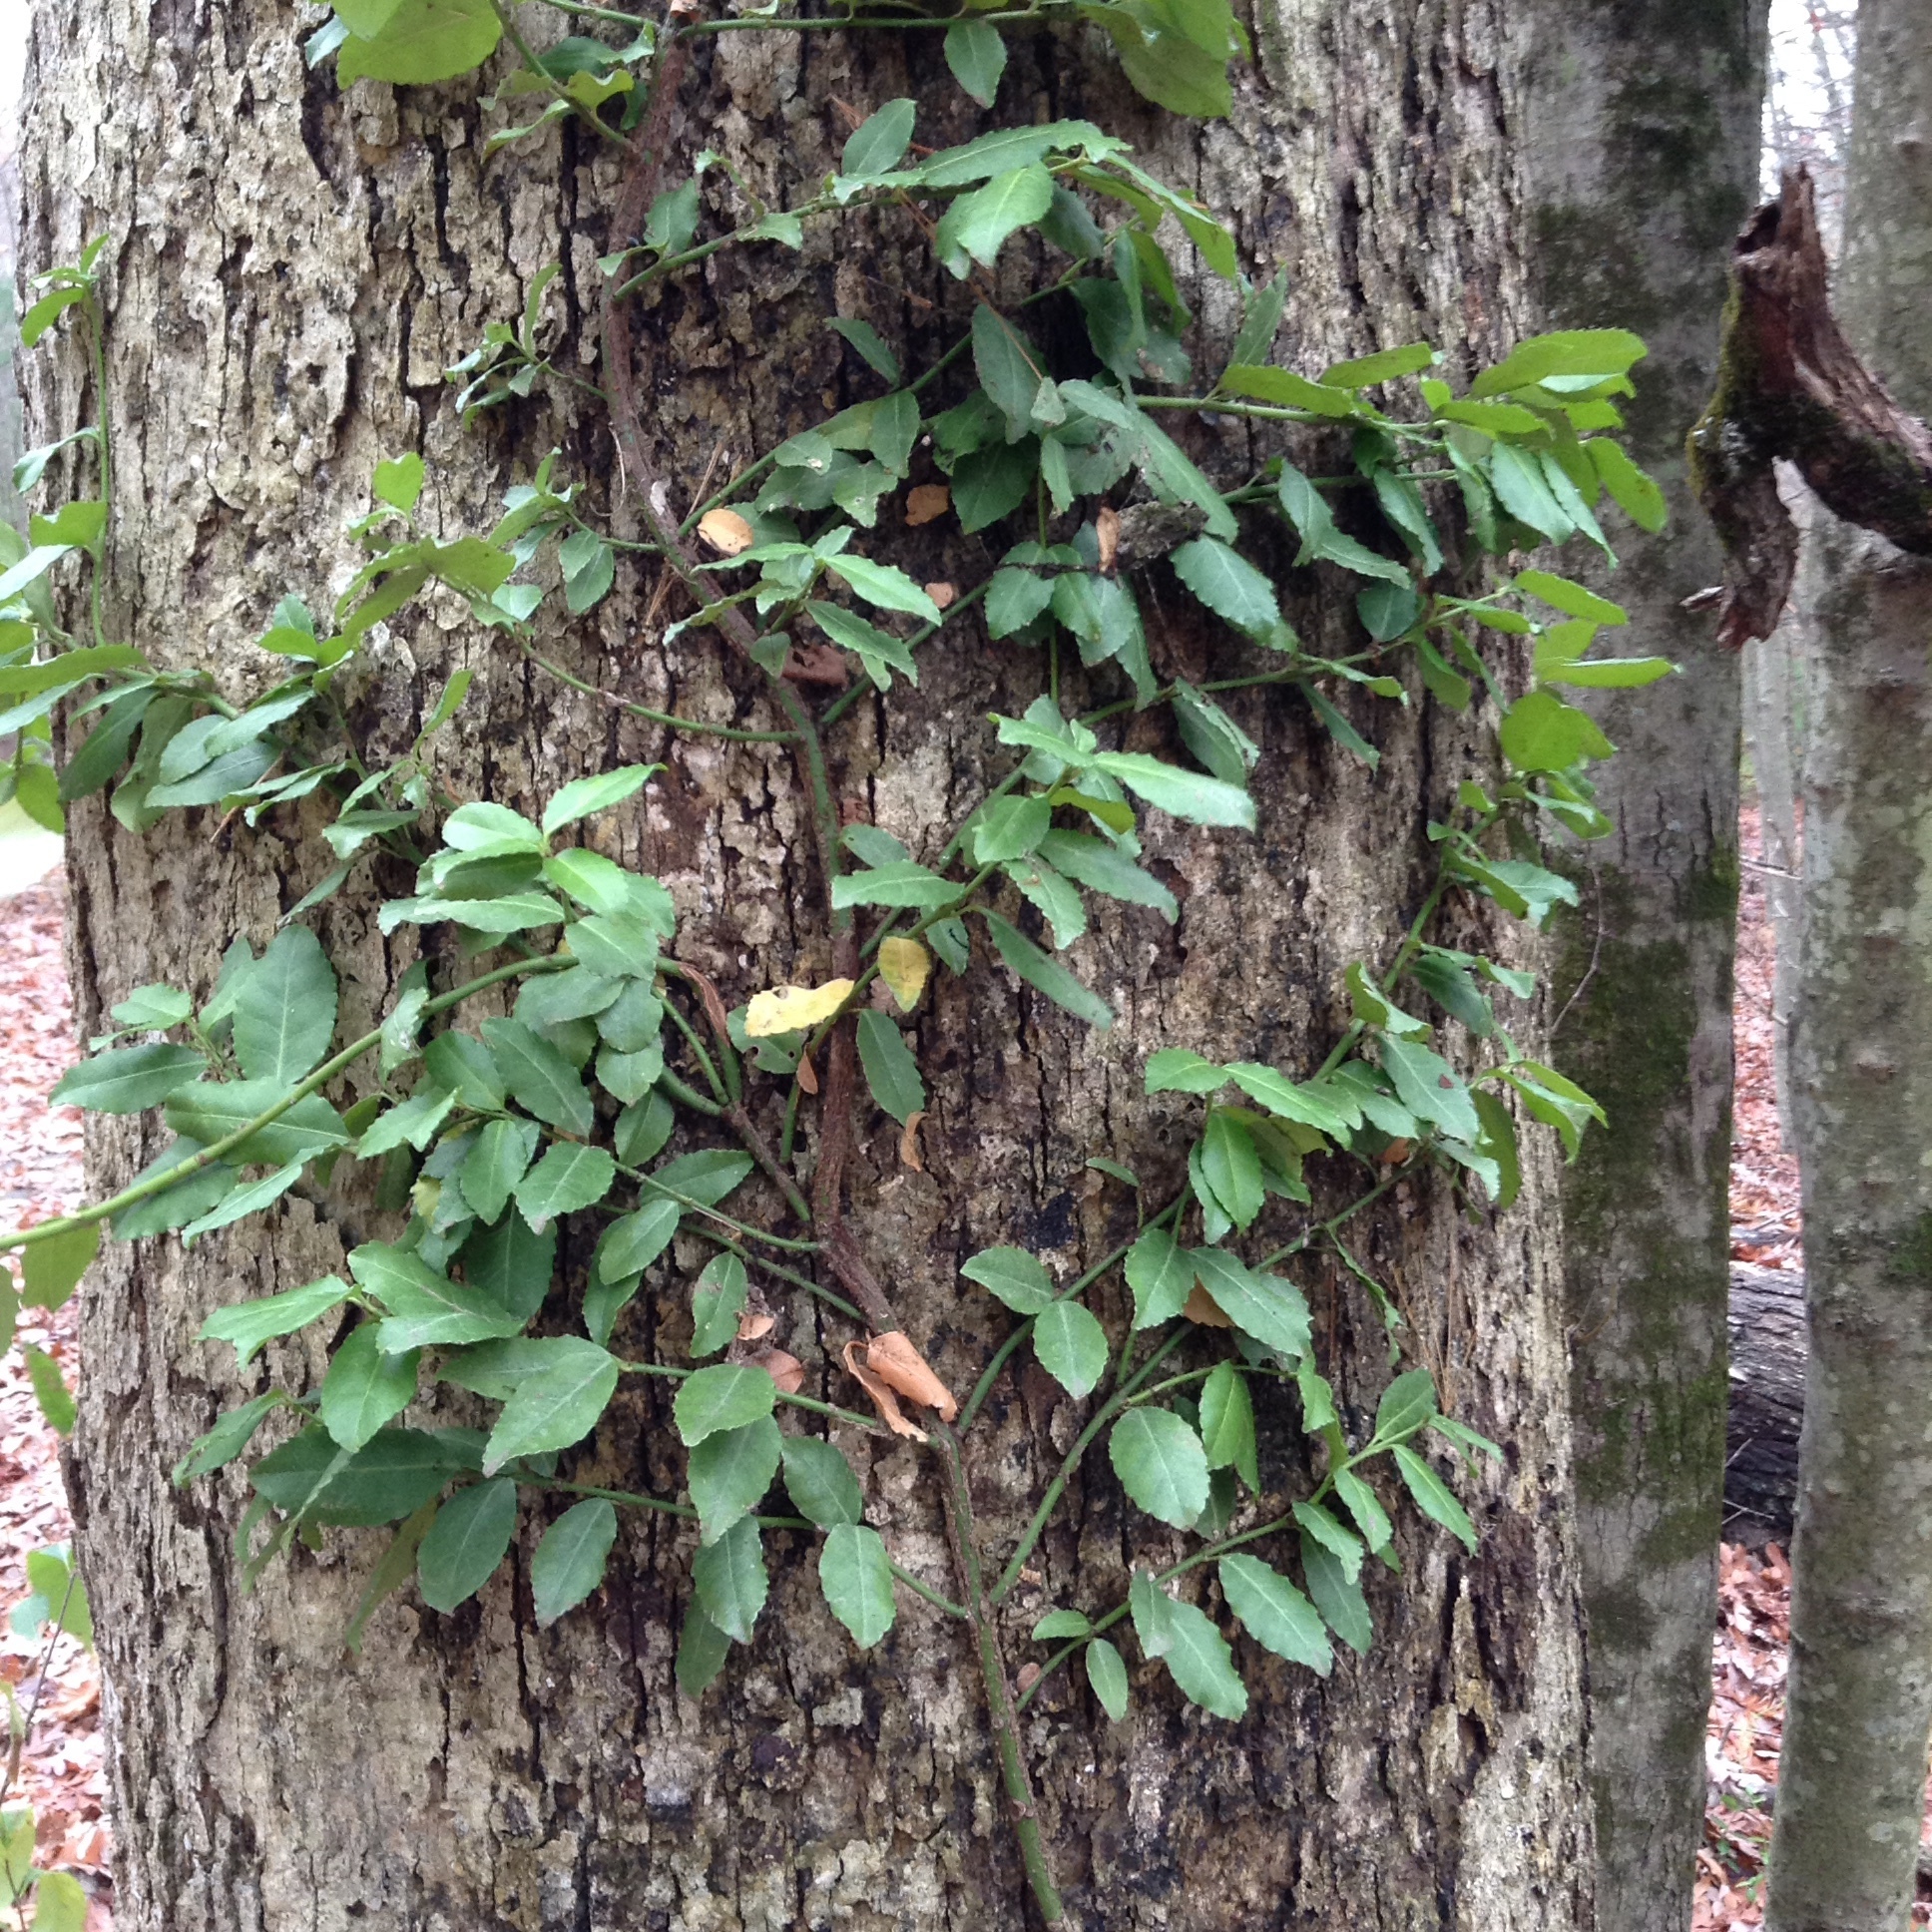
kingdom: Plantae
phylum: Tracheophyta
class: Magnoliopsida
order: Celastrales
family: Celastraceae
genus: Euonymus
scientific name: Euonymus fortunei
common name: Climbing euonymus
